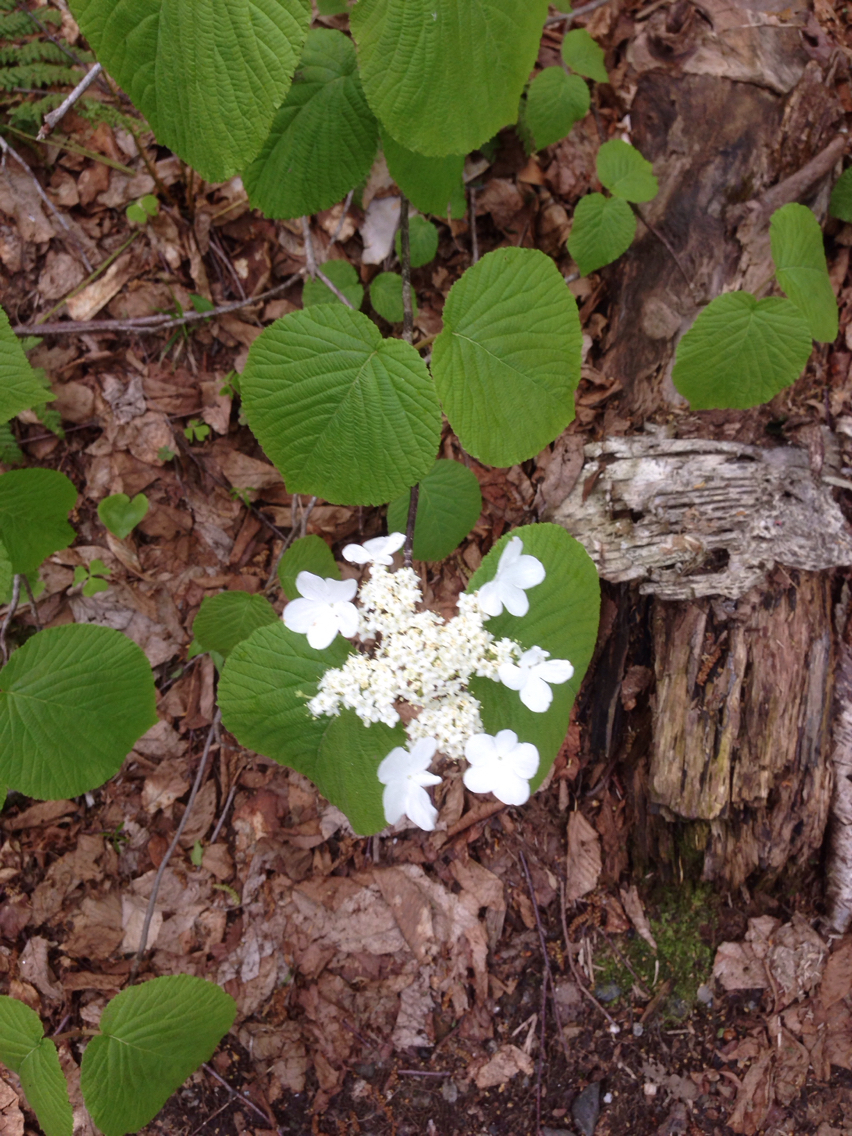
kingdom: Plantae
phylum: Tracheophyta
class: Magnoliopsida
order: Dipsacales
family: Viburnaceae
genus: Viburnum
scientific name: Viburnum lantanoides
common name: Hobblebush
